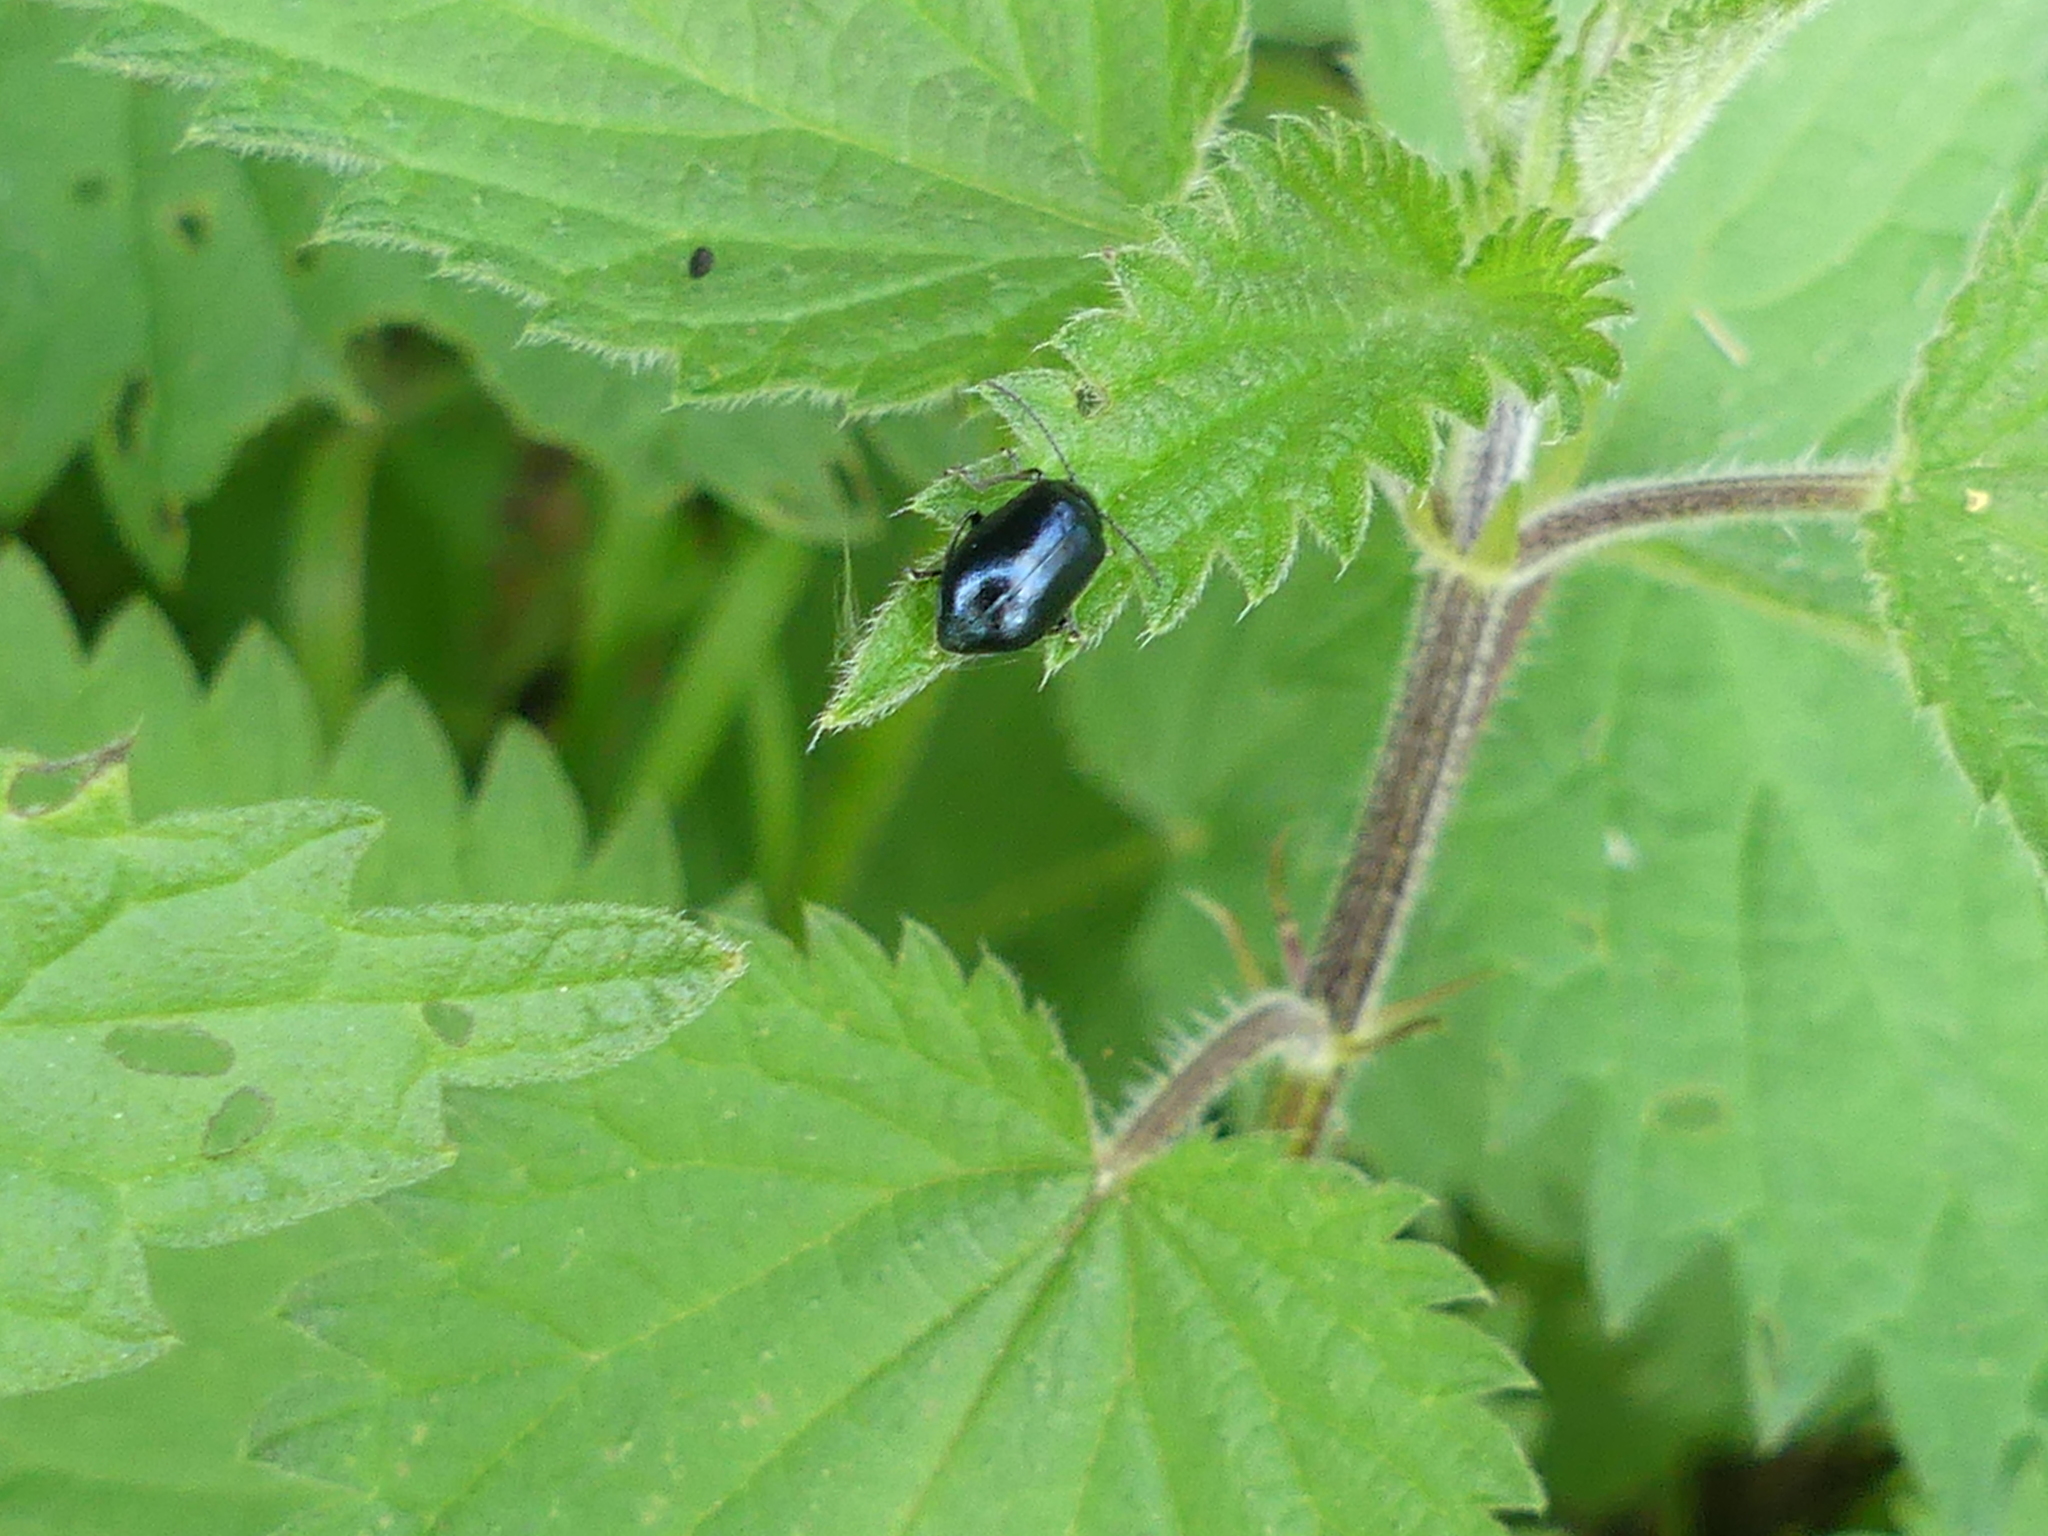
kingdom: Animalia
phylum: Arthropoda
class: Insecta
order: Coleoptera
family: Chrysomelidae
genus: Agelastica
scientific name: Agelastica alni
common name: Alder leaf beetle
